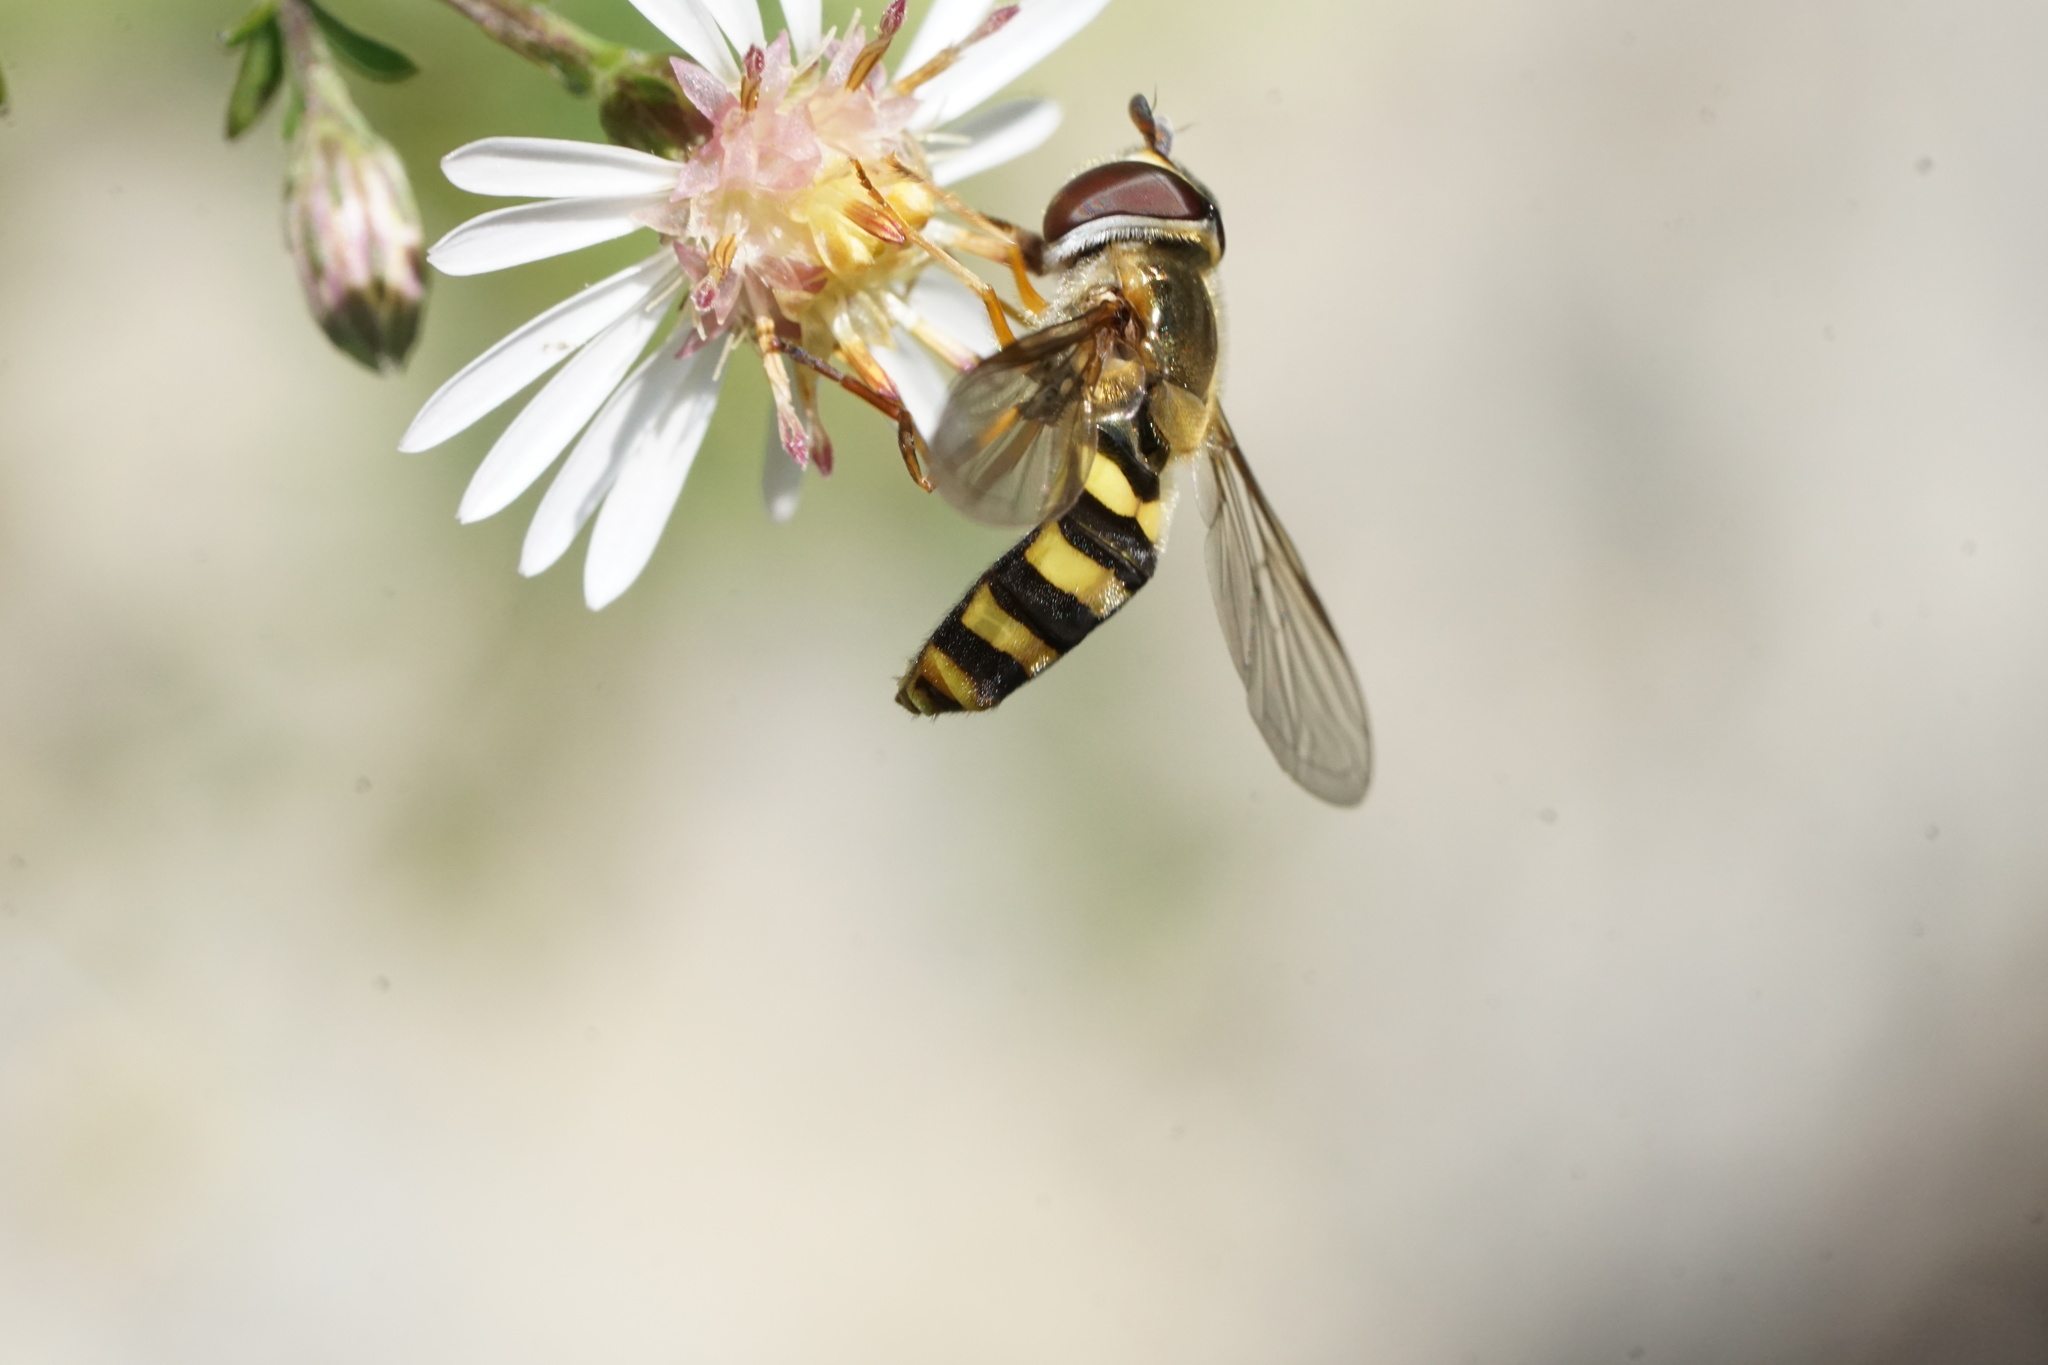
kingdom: Animalia
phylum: Arthropoda
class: Insecta
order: Diptera
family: Syrphidae
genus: Eupeodes
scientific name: Eupeodes
